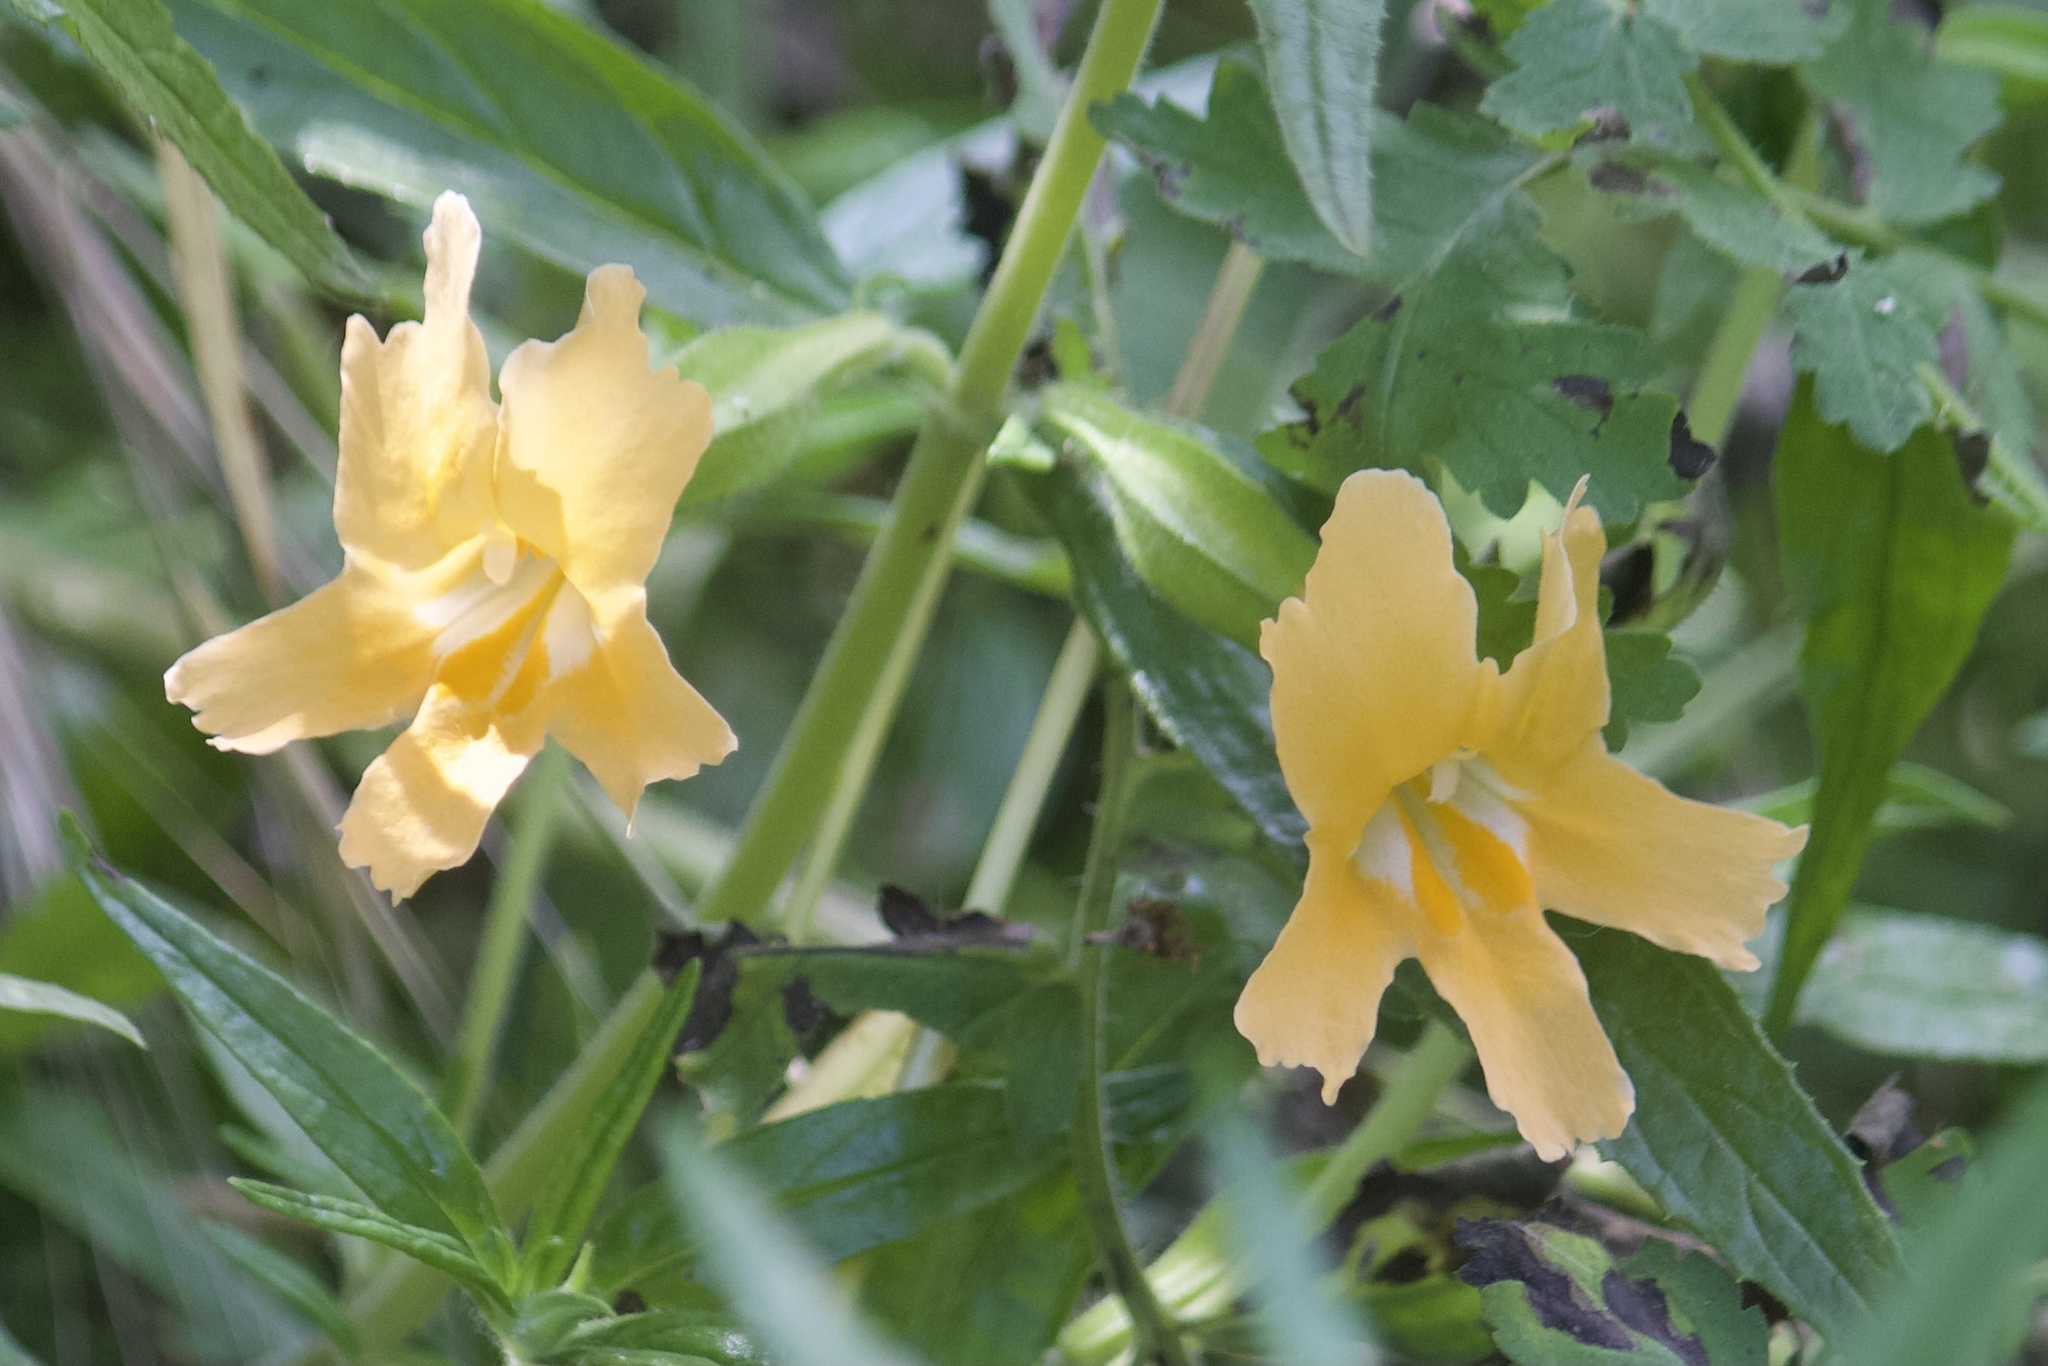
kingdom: Plantae
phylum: Tracheophyta
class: Magnoliopsida
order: Lamiales
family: Phrymaceae
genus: Diplacus
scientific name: Diplacus longiflorus
